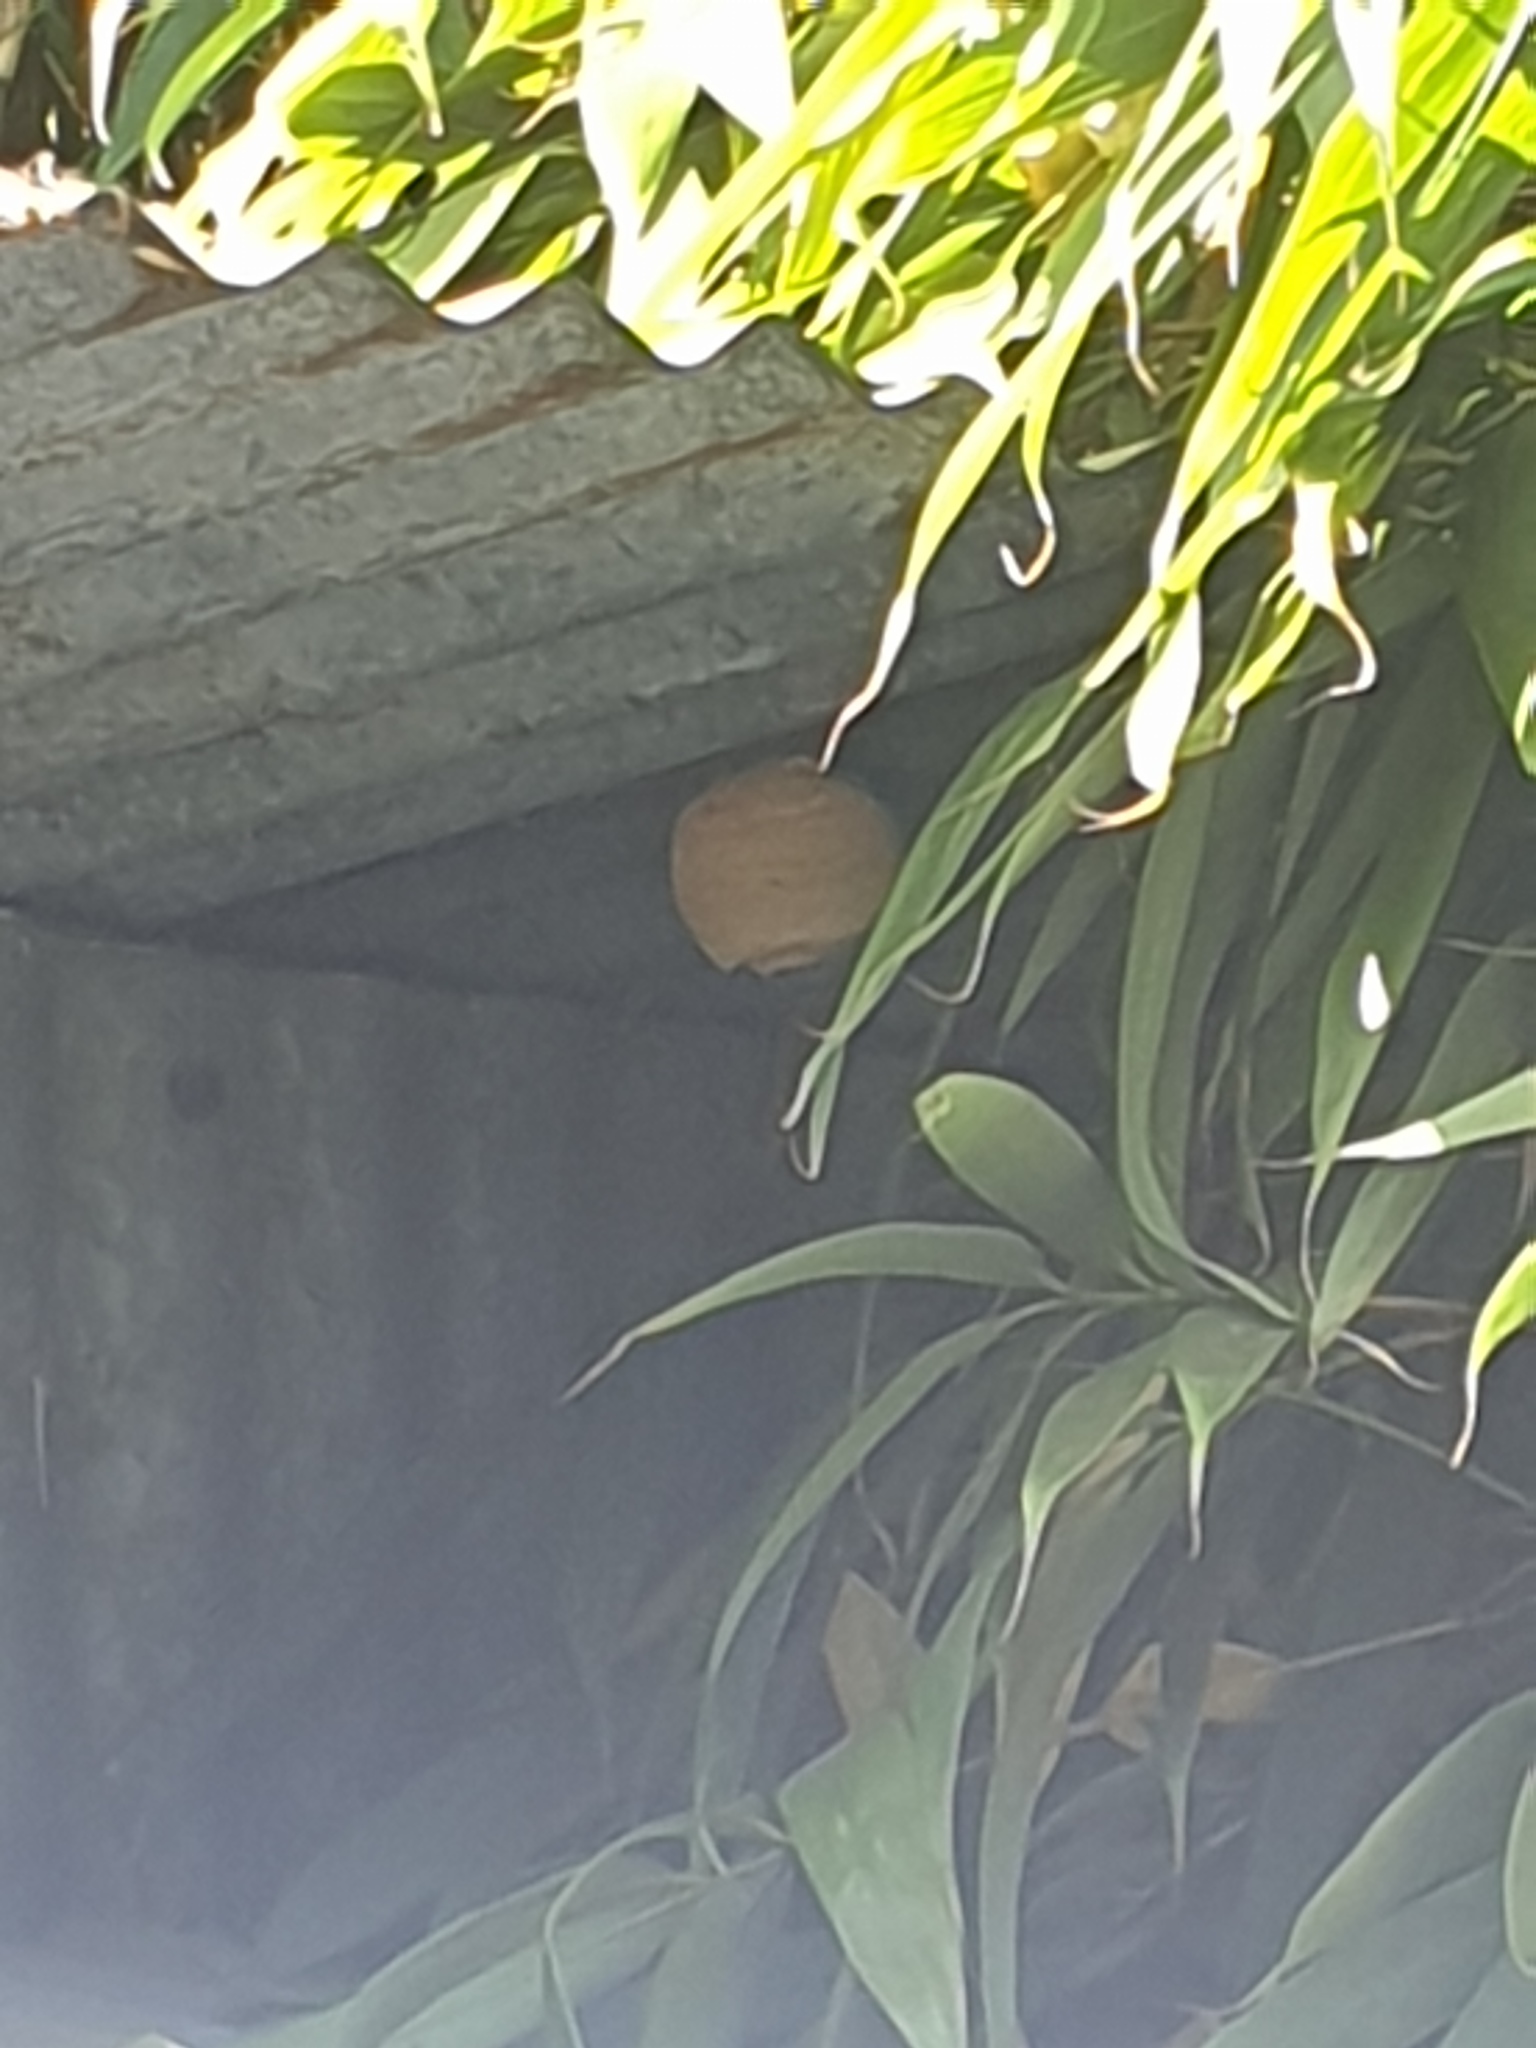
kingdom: Animalia
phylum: Arthropoda
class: Insecta
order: Hymenoptera
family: Vespidae
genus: Vespa
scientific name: Vespa velutina
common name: Asian hornet
